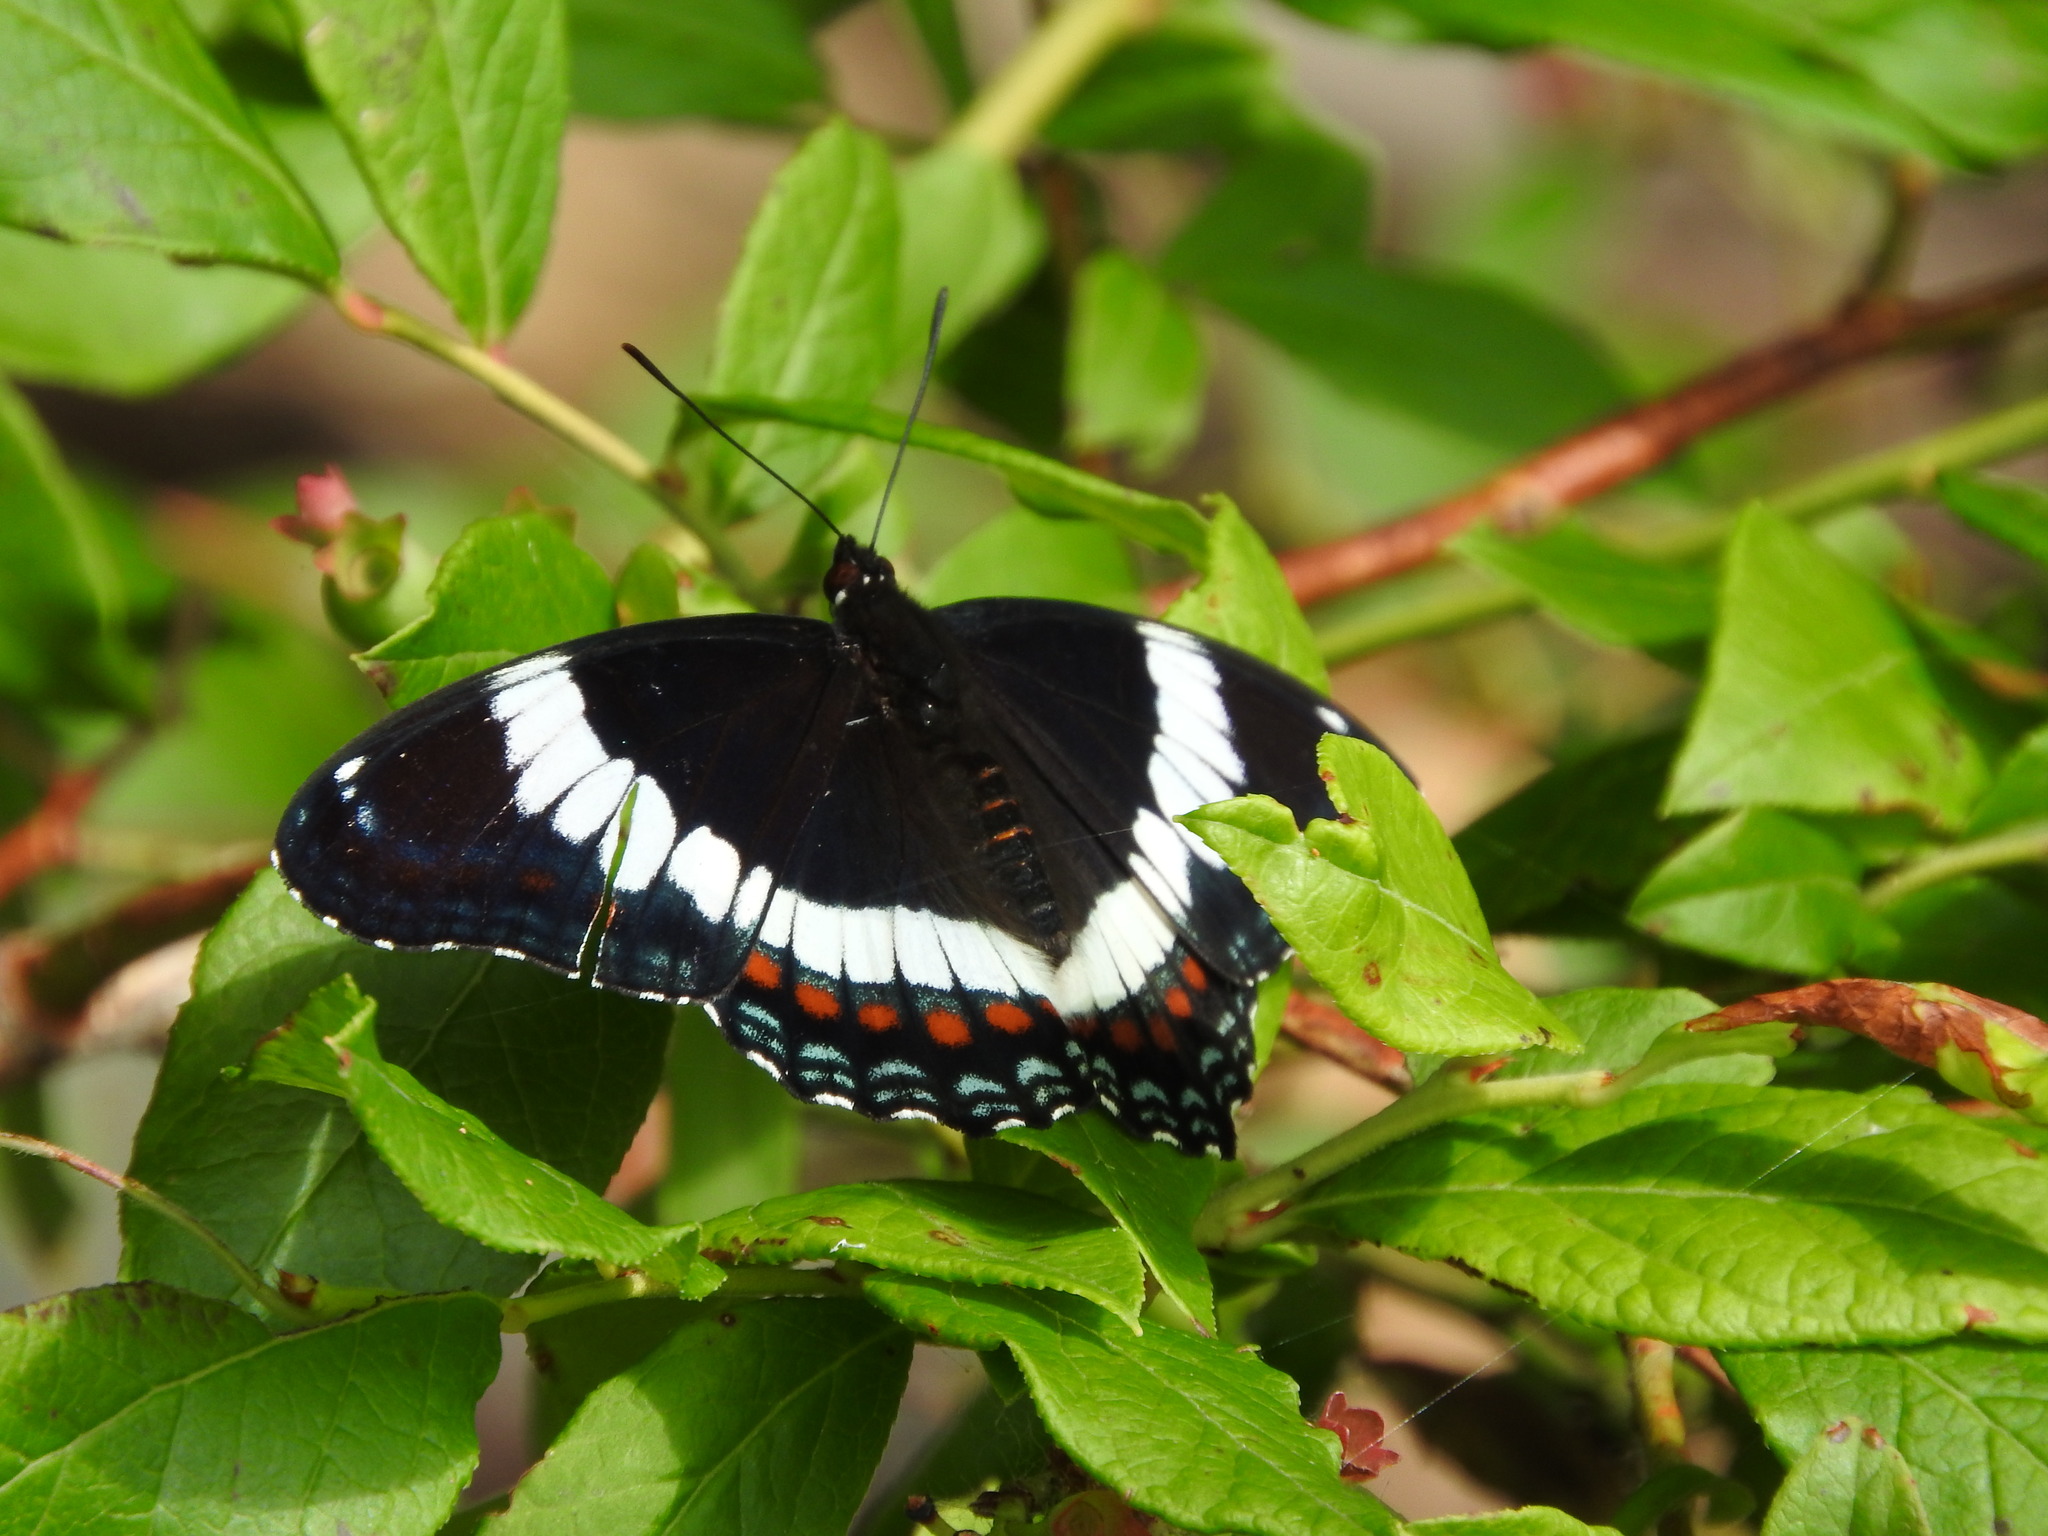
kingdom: Animalia
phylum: Arthropoda
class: Insecta
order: Lepidoptera
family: Nymphalidae
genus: Limenitis
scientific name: Limenitis arthemis
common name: Red-spotted admiral
